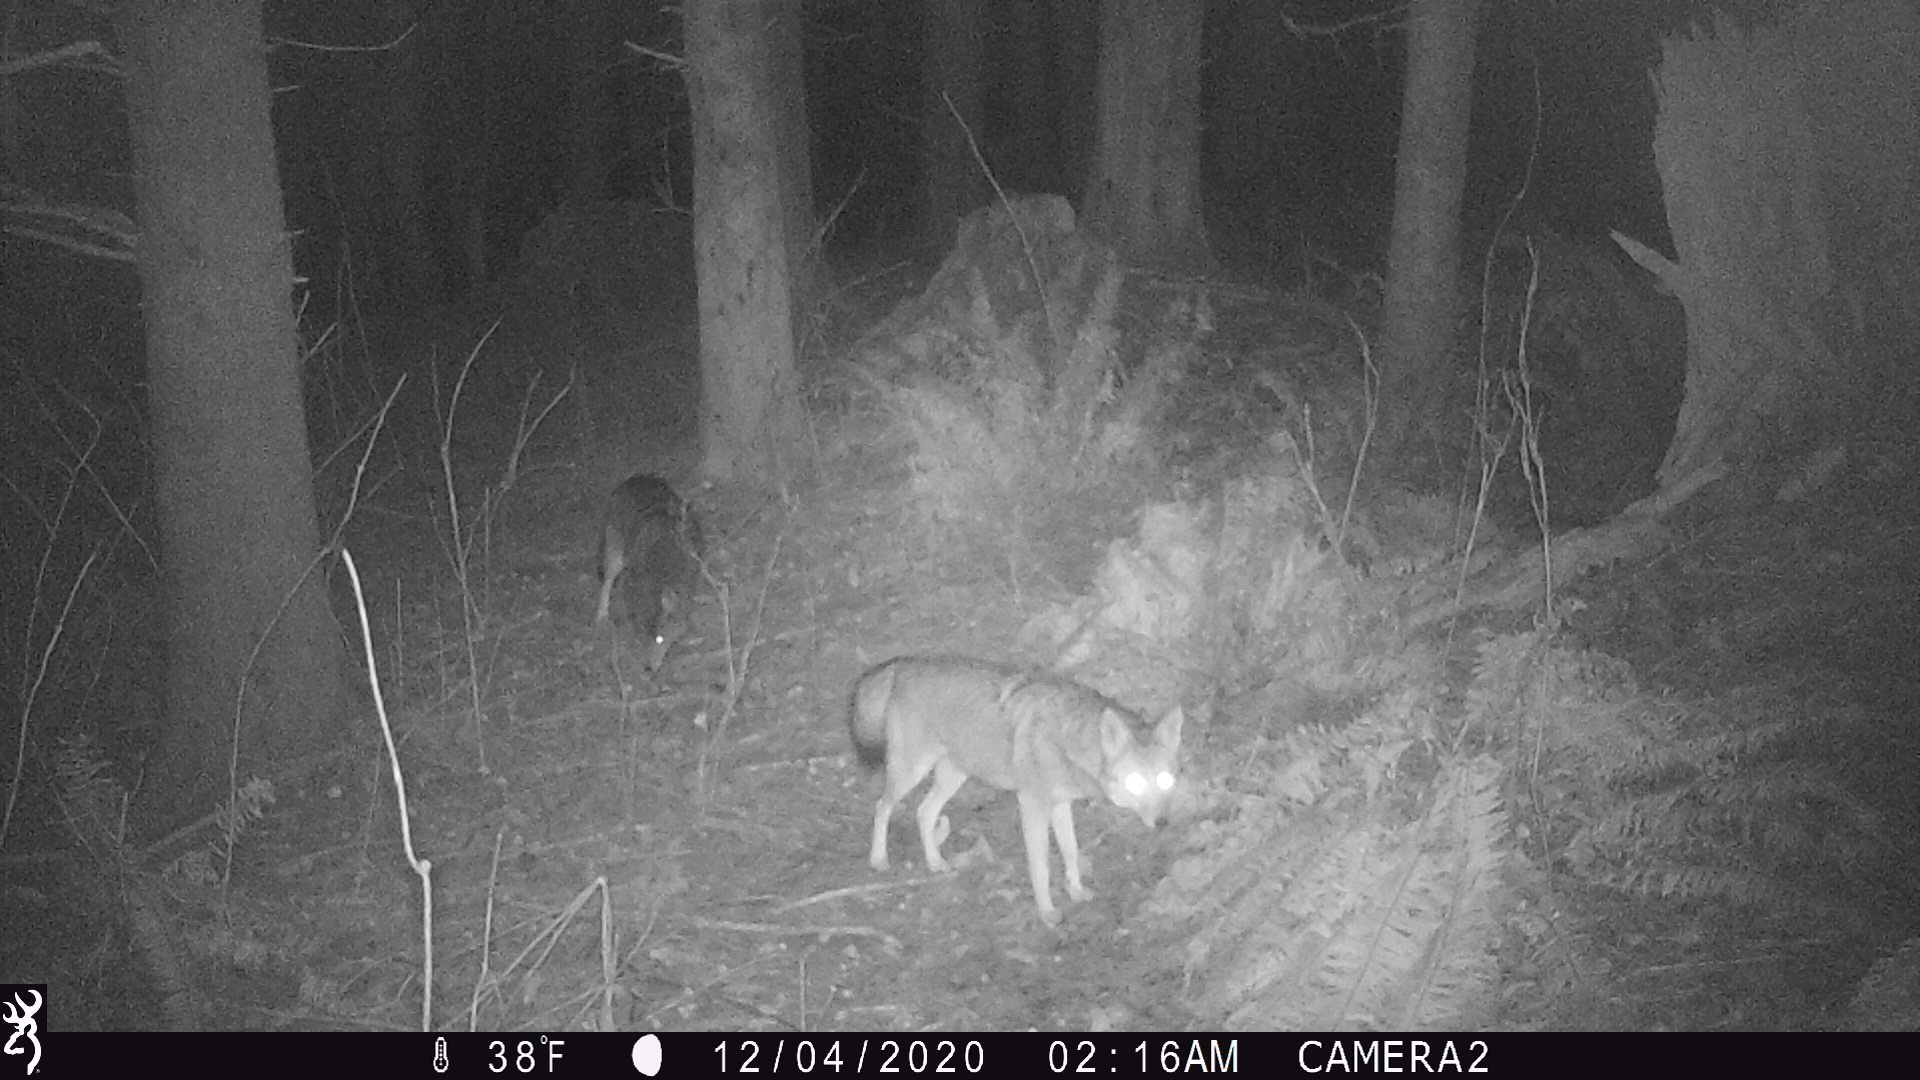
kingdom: Animalia
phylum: Chordata
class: Mammalia
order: Carnivora
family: Canidae
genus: Canis
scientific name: Canis latrans
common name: Coyote
